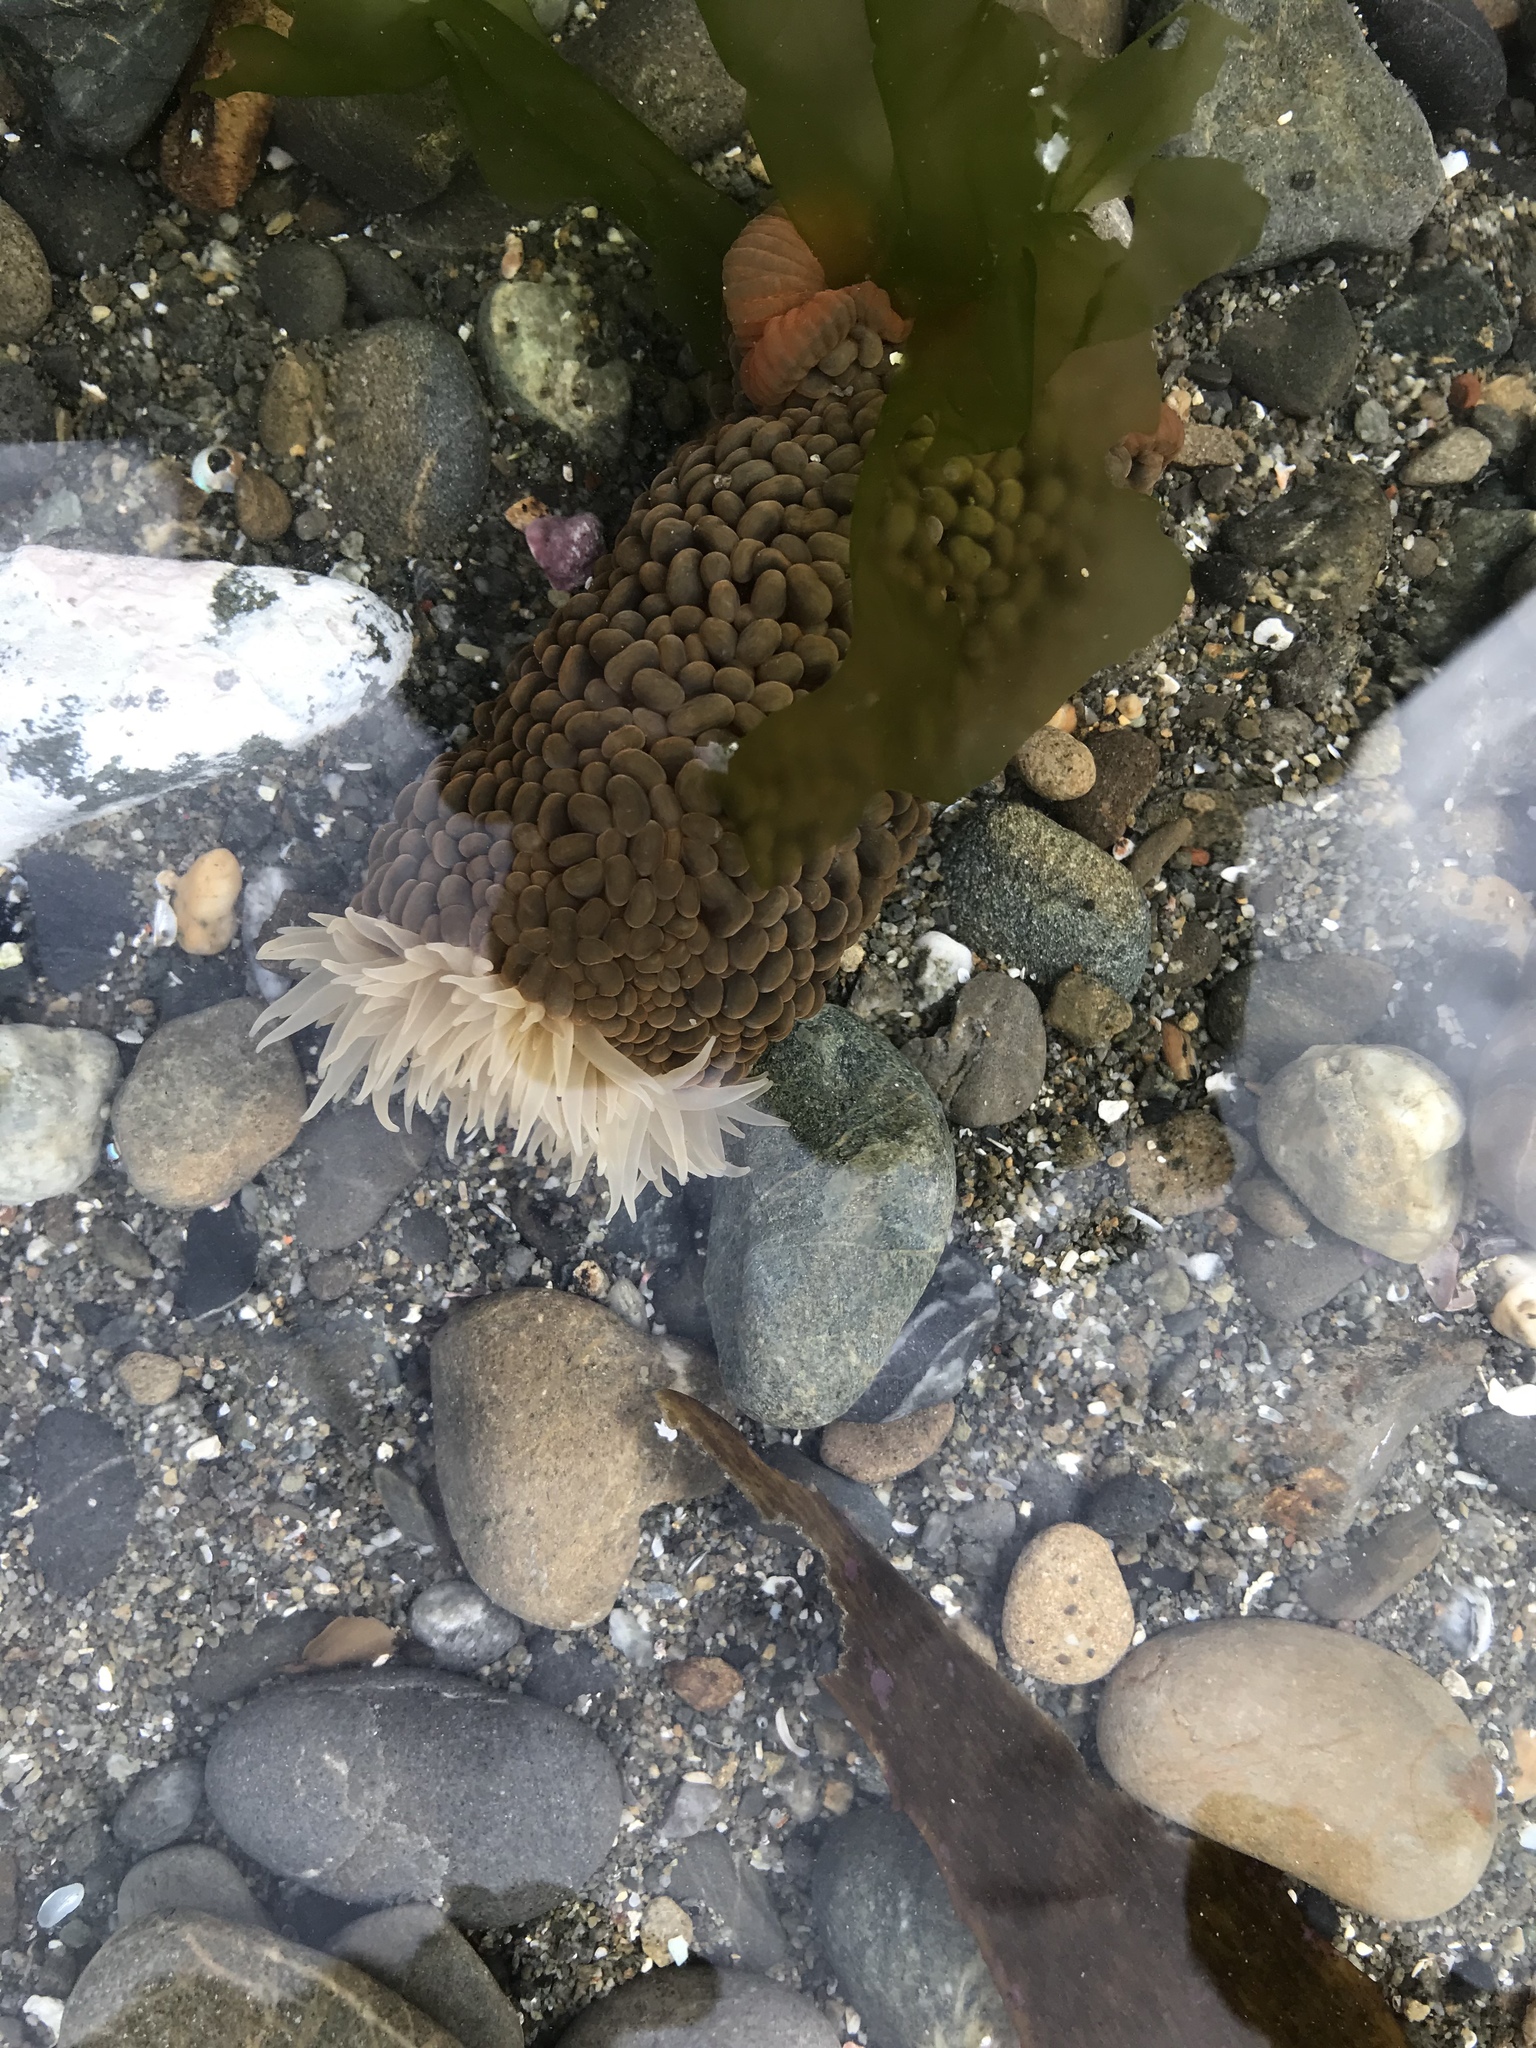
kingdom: Animalia
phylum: Cnidaria
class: Anthozoa
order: Actiniaria
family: Actiniidae
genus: Phlyctenactis
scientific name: Phlyctenactis tuberculosa
